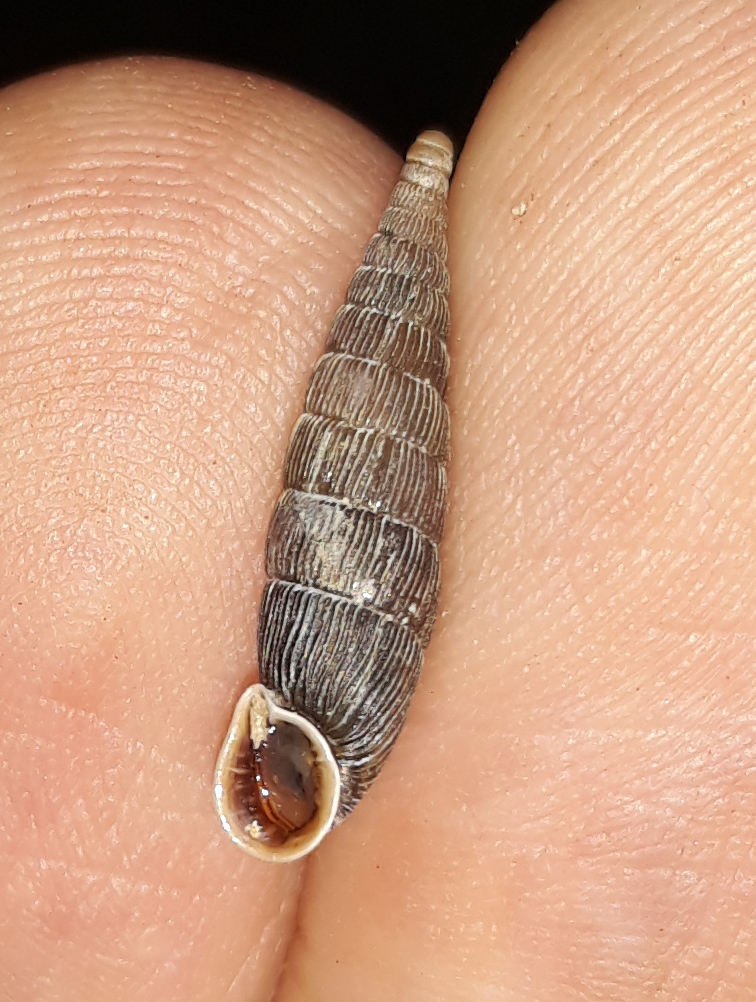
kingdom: Animalia
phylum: Mollusca
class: Gastropoda
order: Stylommatophora
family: Clausiliidae
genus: Laciniaria
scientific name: Laciniaria plicata
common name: Single-lipped door snail
